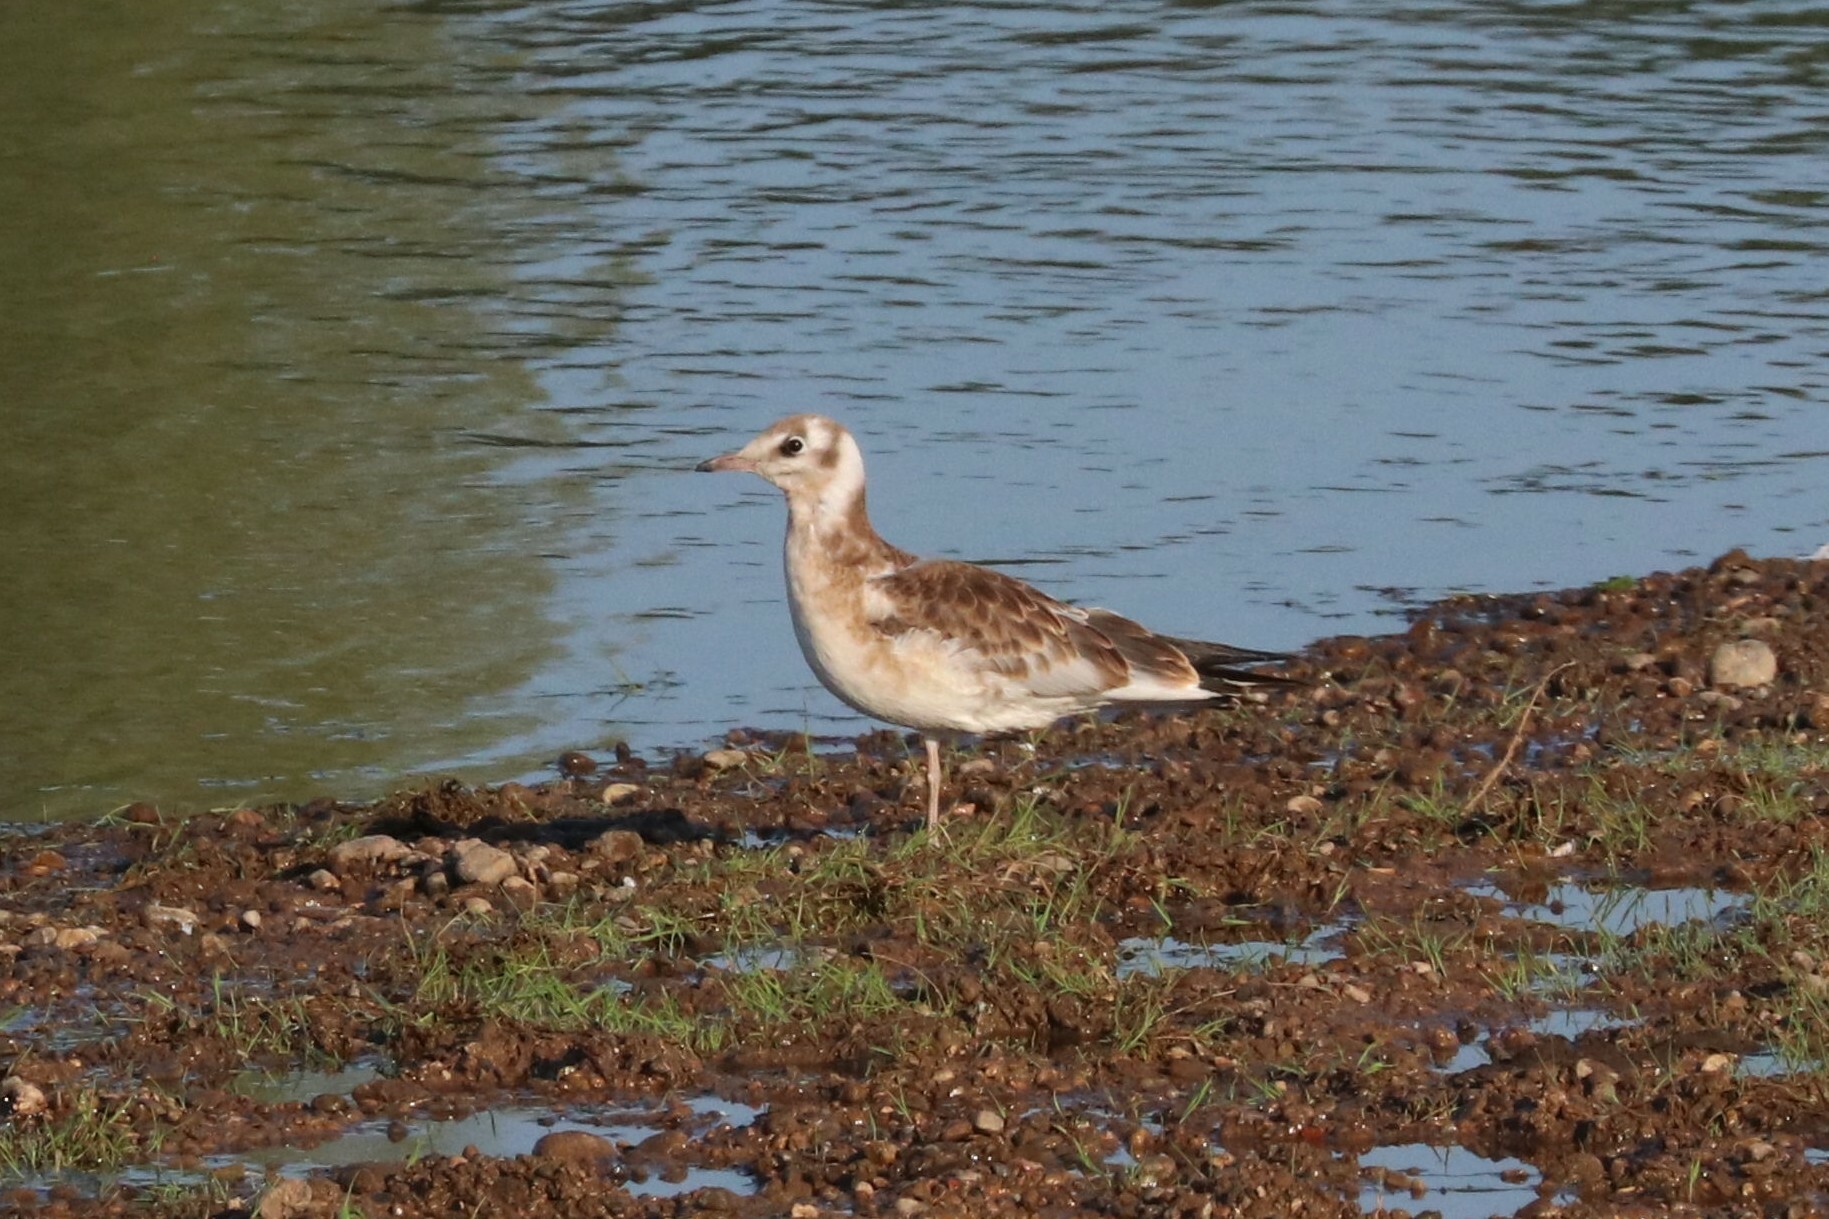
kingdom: Animalia
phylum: Chordata
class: Aves
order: Charadriiformes
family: Laridae
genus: Chroicocephalus
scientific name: Chroicocephalus ridibundus
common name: Black-headed gull
